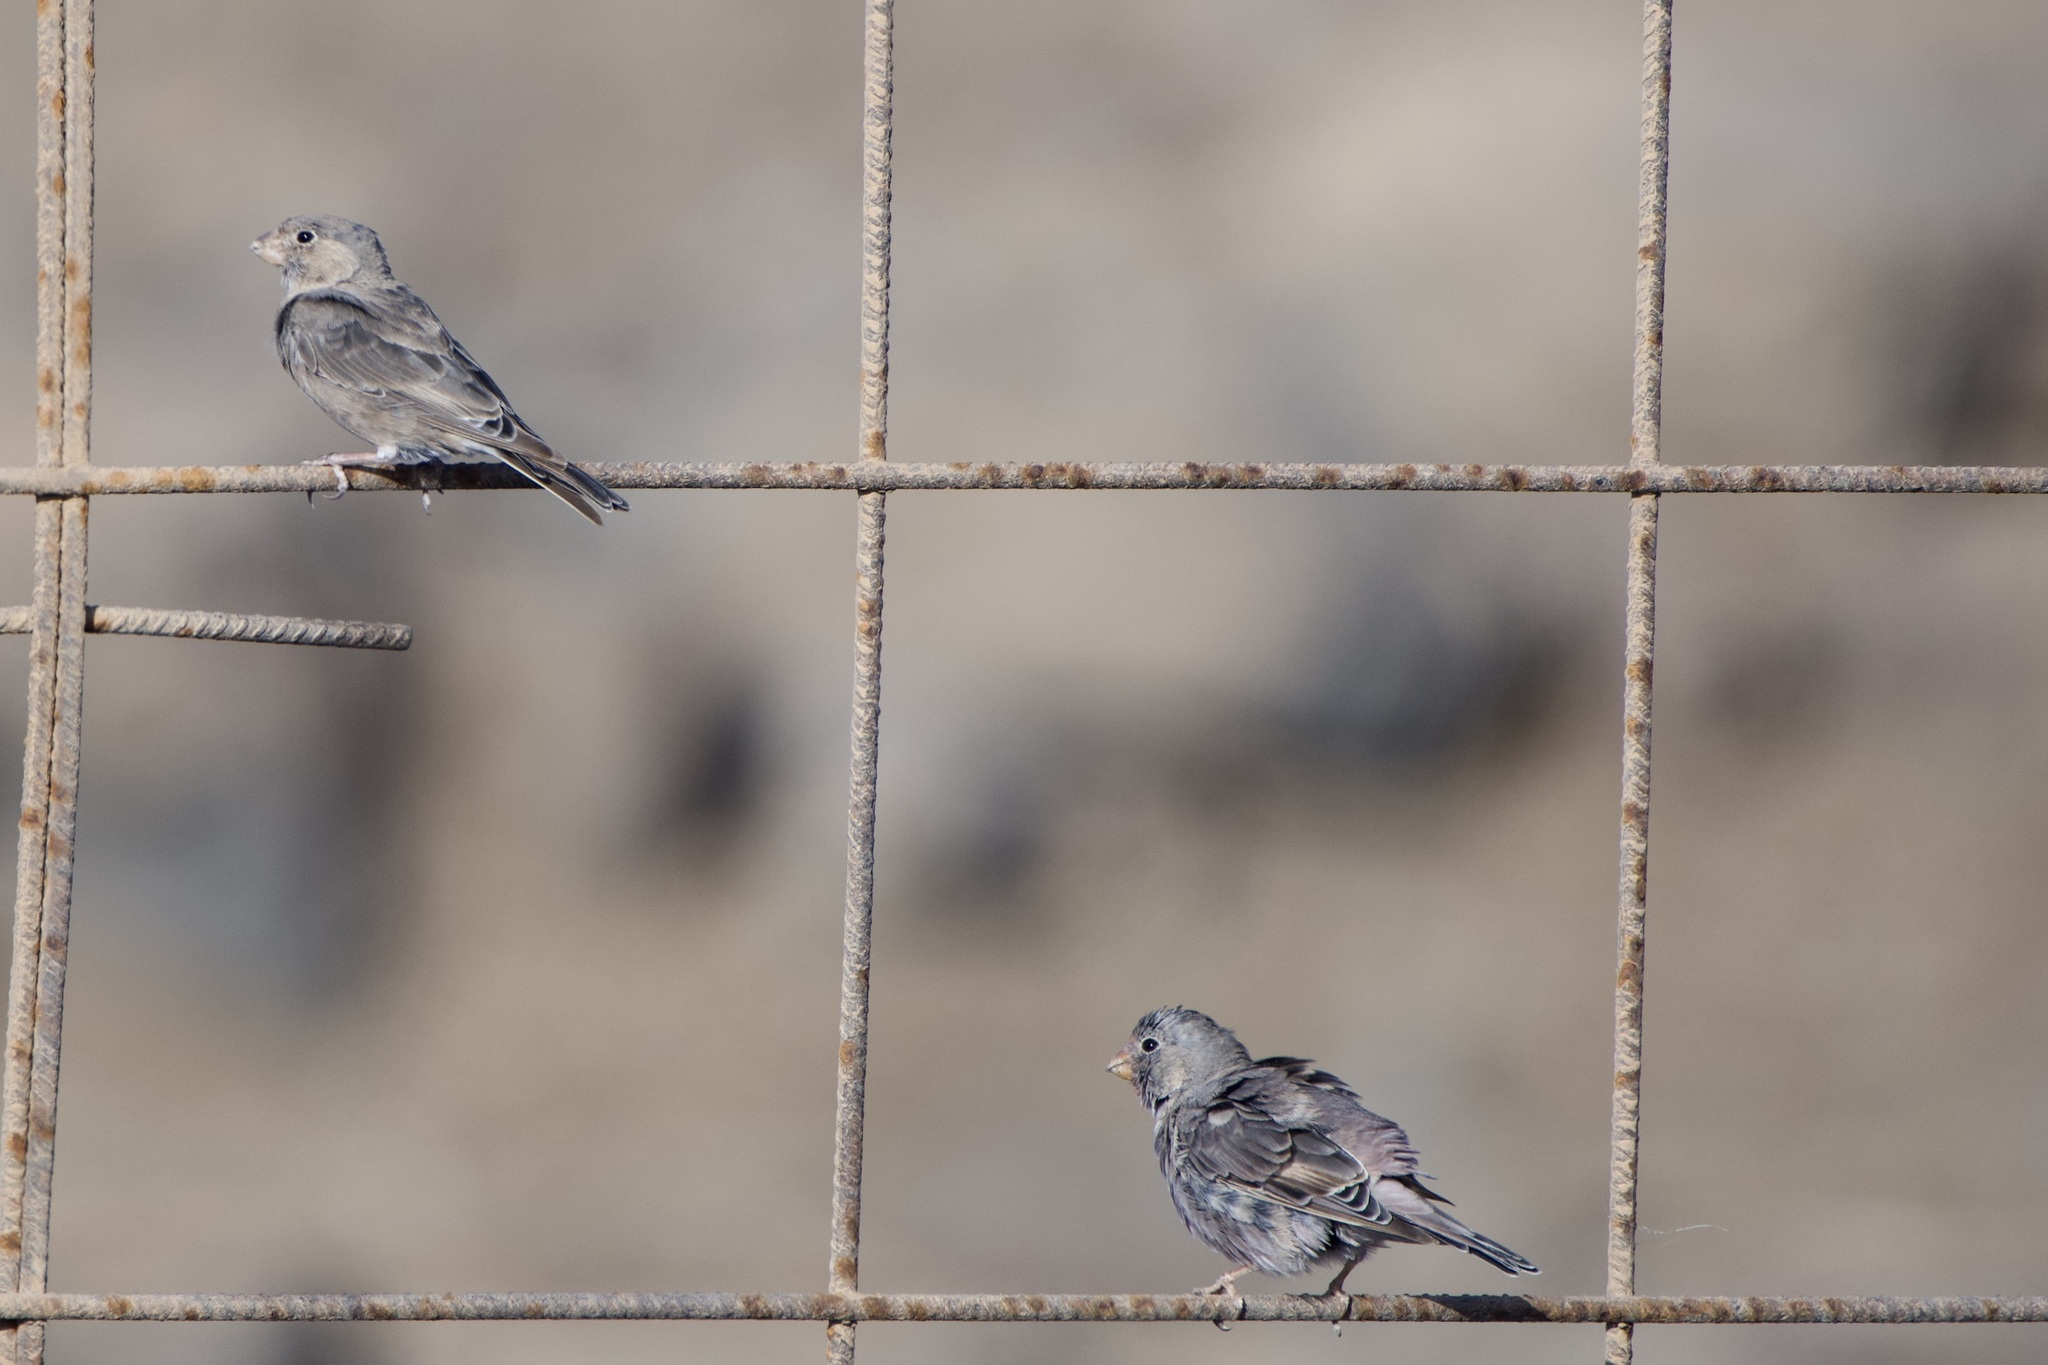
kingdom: Animalia
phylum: Chordata
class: Aves
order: Passeriformes
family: Fringillidae
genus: Bucanetes
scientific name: Bucanetes githagineus
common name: Trumpeter finch
